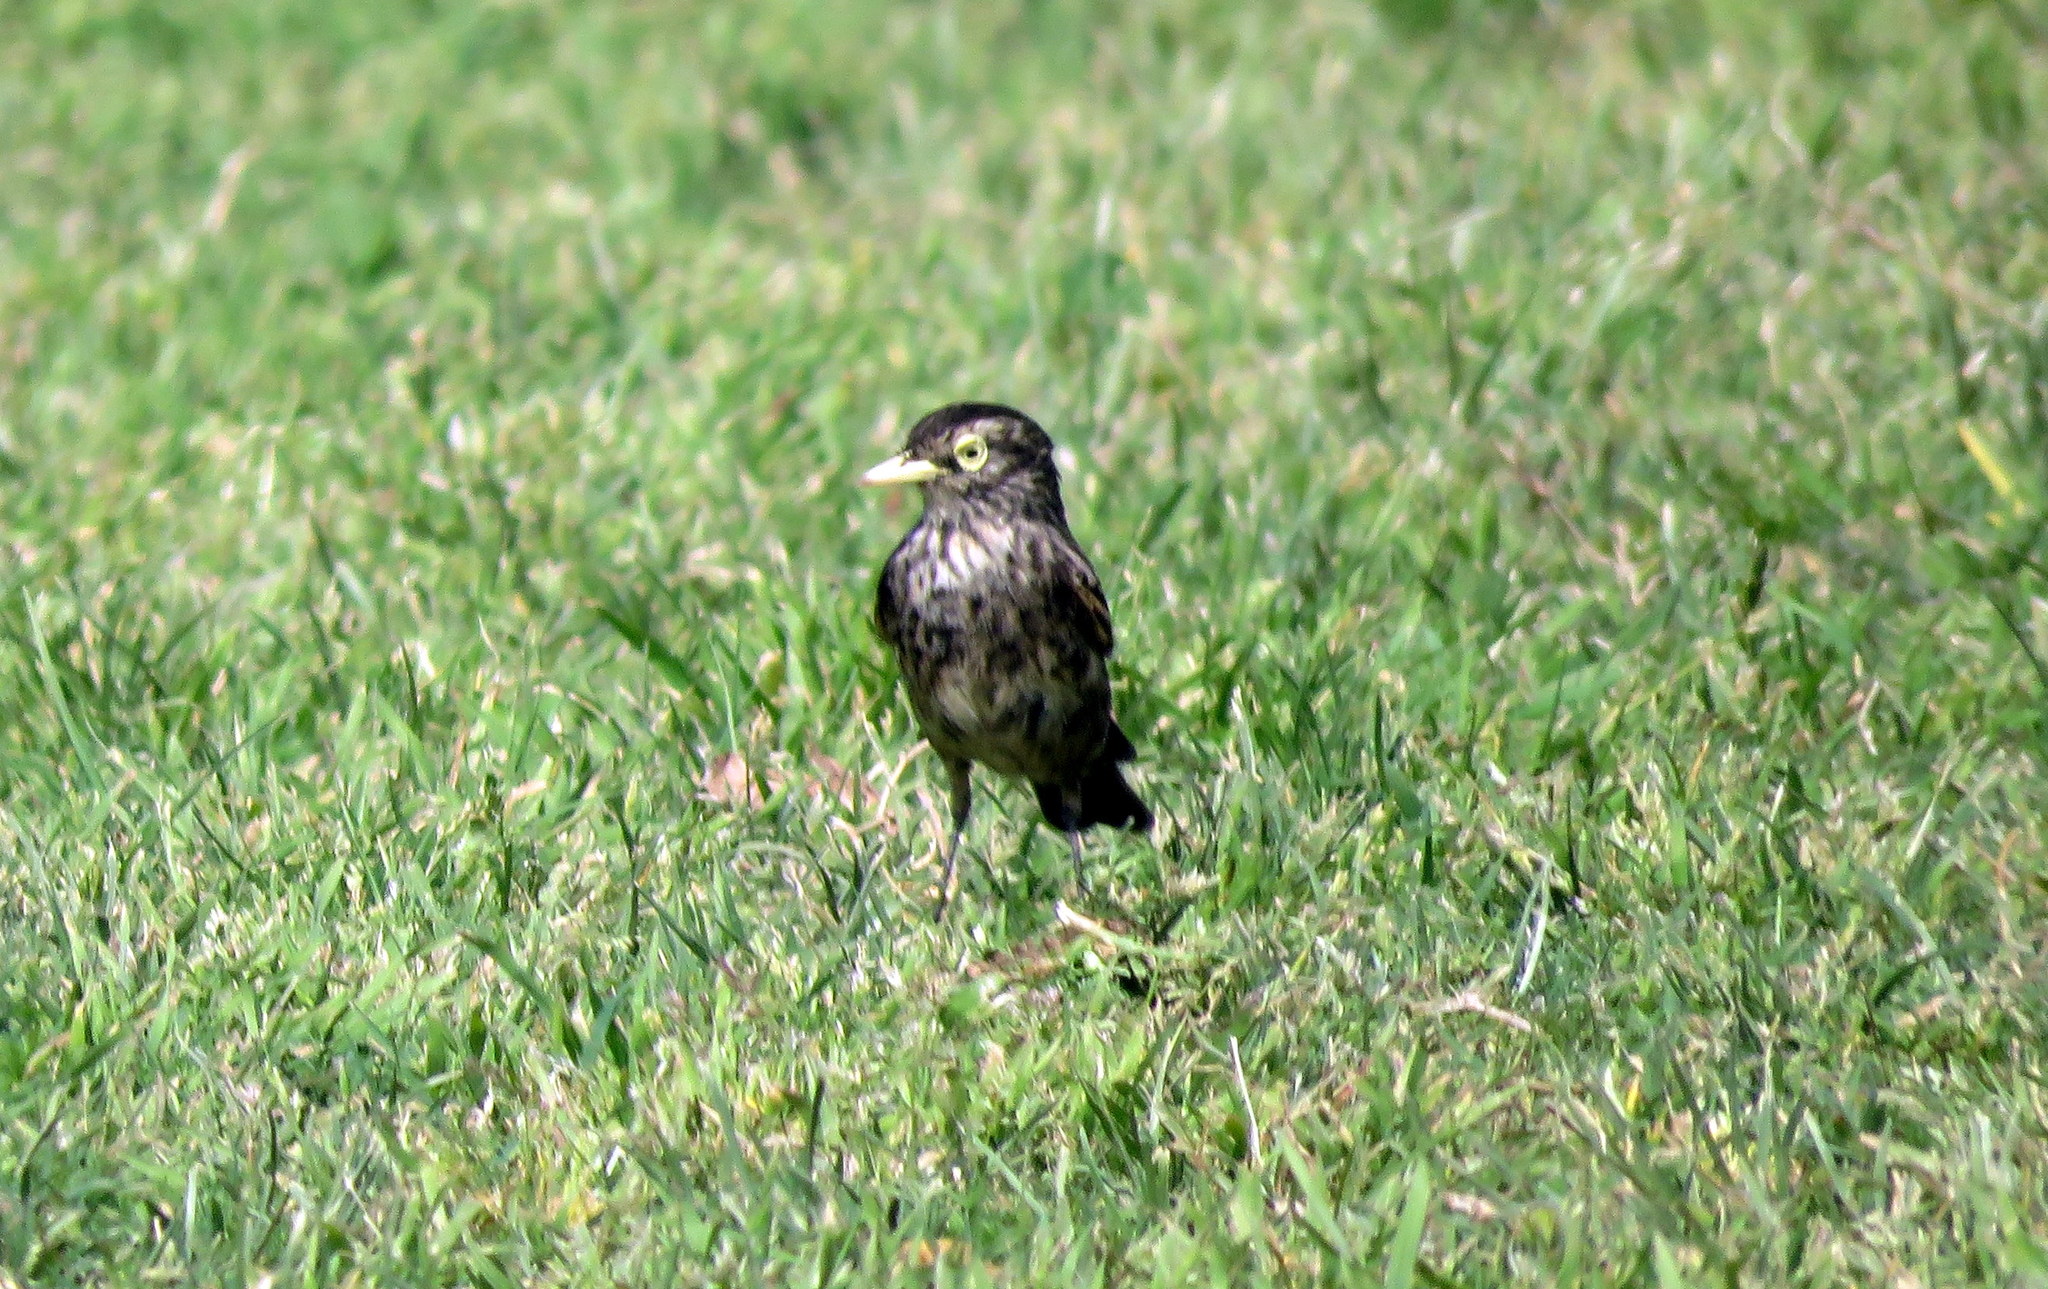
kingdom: Animalia
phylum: Chordata
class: Aves
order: Passeriformes
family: Tyrannidae
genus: Hymenops
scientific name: Hymenops perspicillatus
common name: Spectacled tyrant
